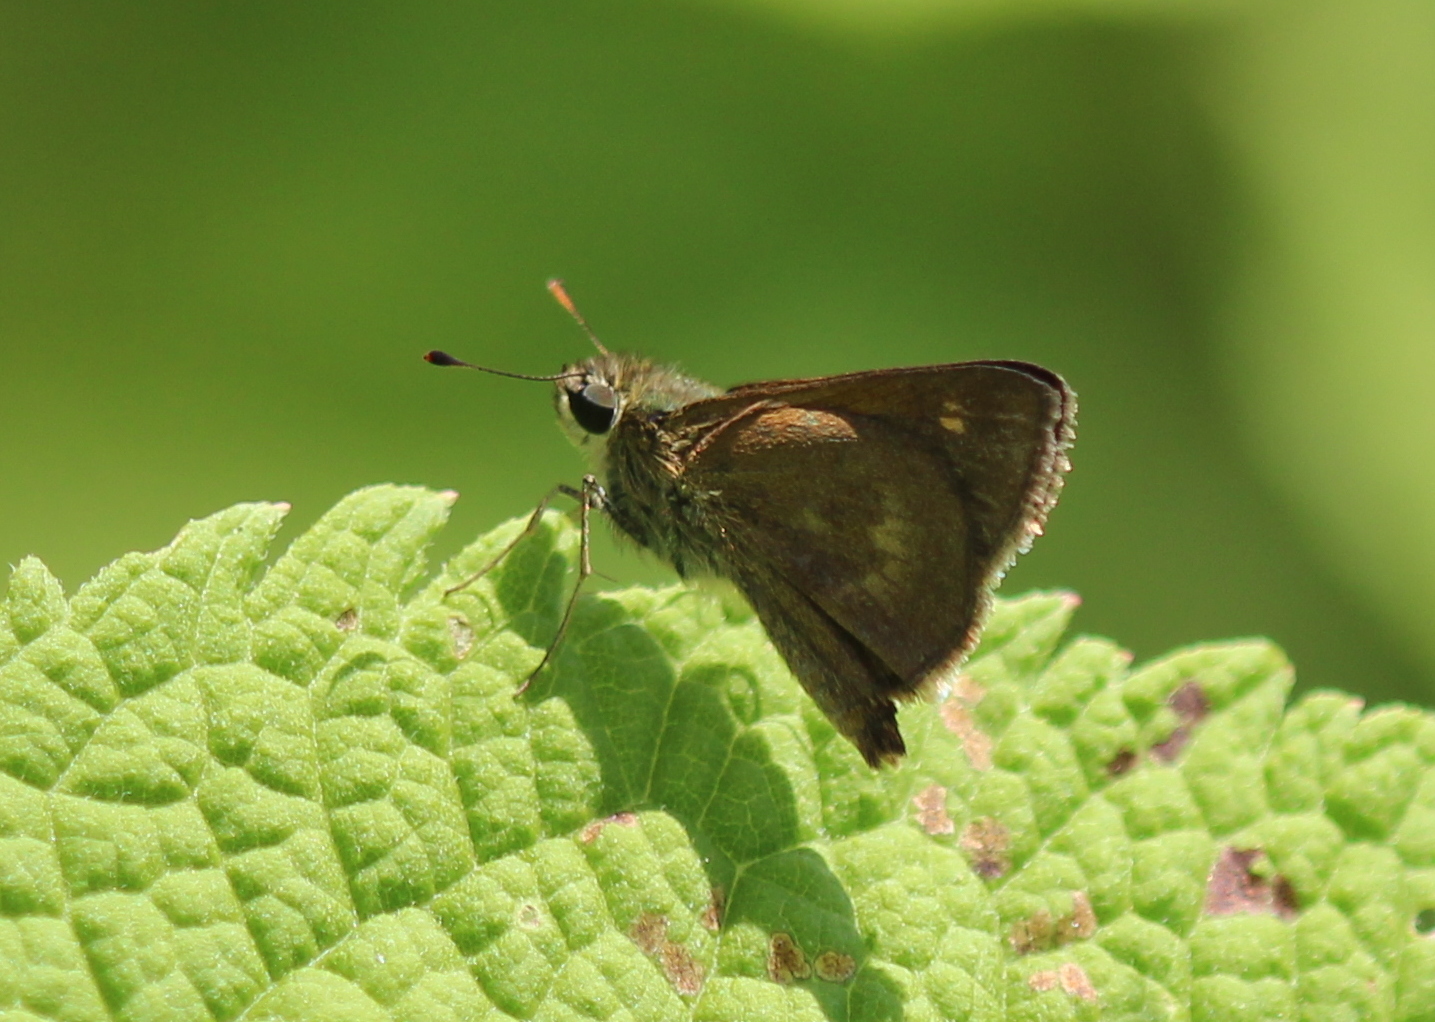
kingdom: Animalia
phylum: Arthropoda
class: Insecta
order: Lepidoptera
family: Hesperiidae
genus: Polites
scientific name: Polites egeremet
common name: Northern broken-dash
